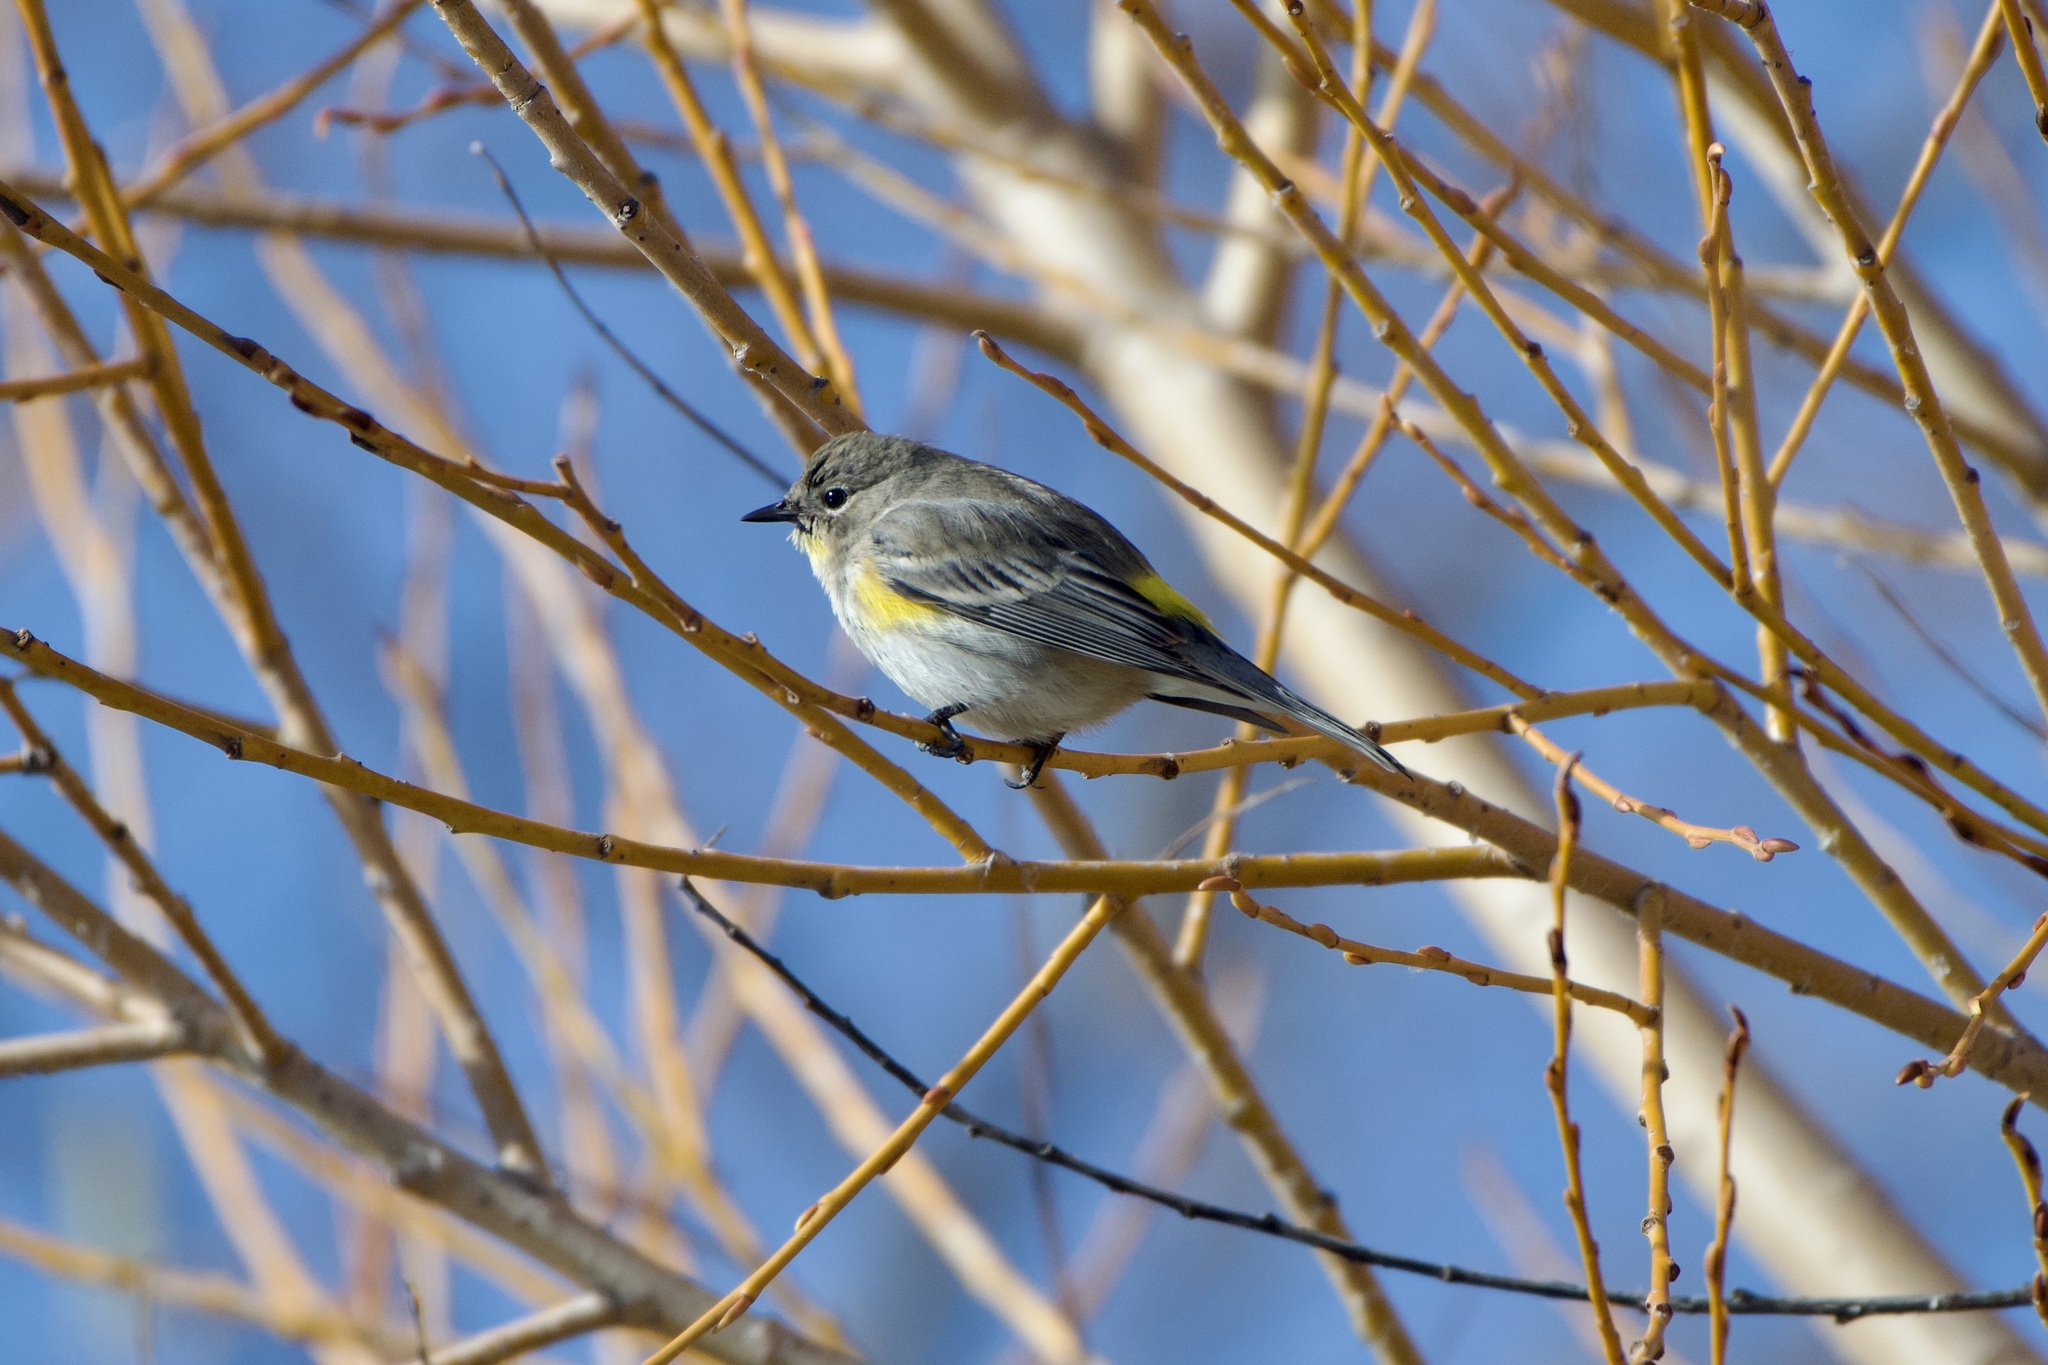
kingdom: Animalia
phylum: Chordata
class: Aves
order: Passeriformes
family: Parulidae
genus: Setophaga
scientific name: Setophaga auduboni
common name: Audubon's warbler
